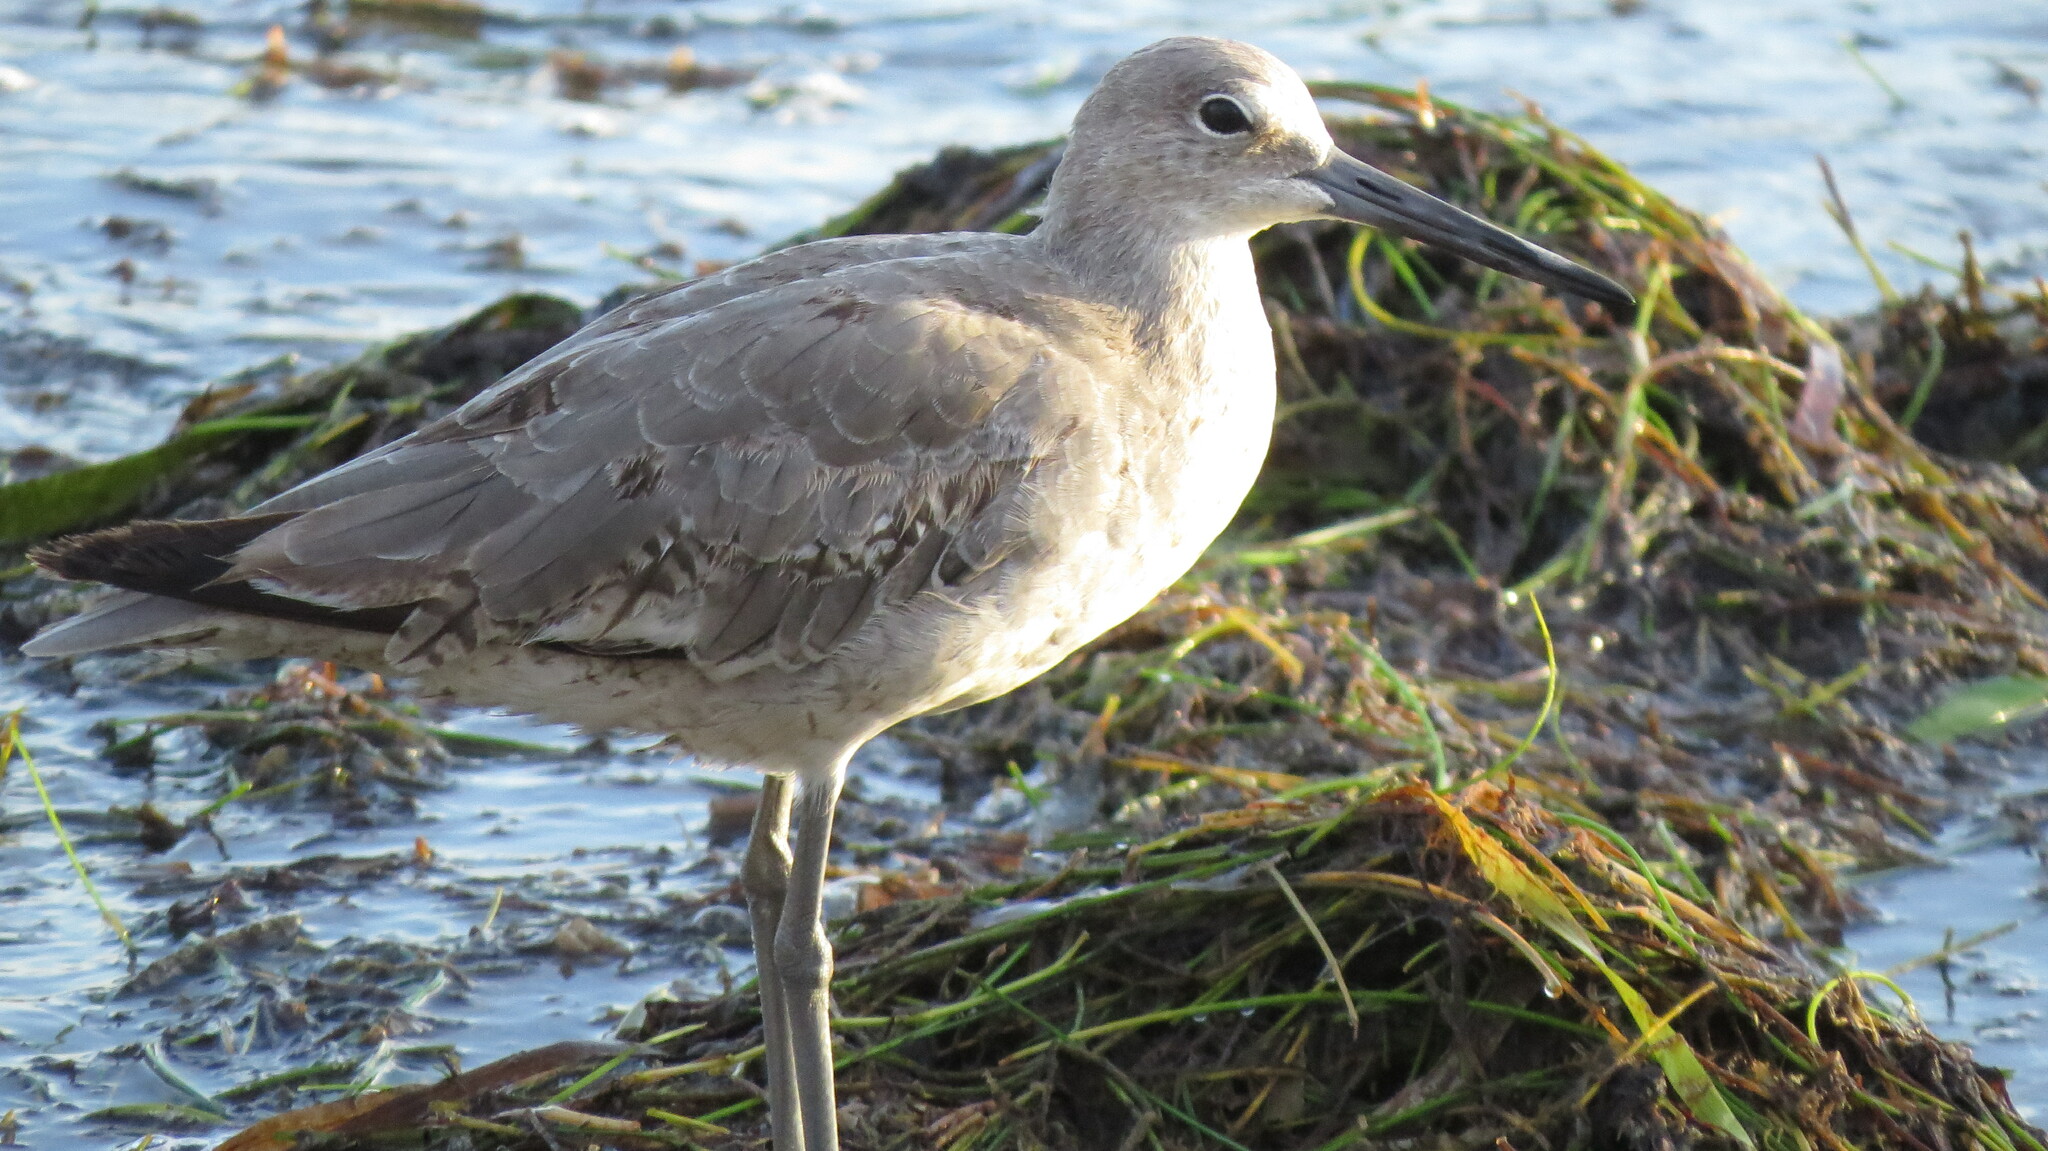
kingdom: Animalia
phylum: Chordata
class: Aves
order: Charadriiformes
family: Scolopacidae
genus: Tringa
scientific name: Tringa semipalmata
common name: Willet
